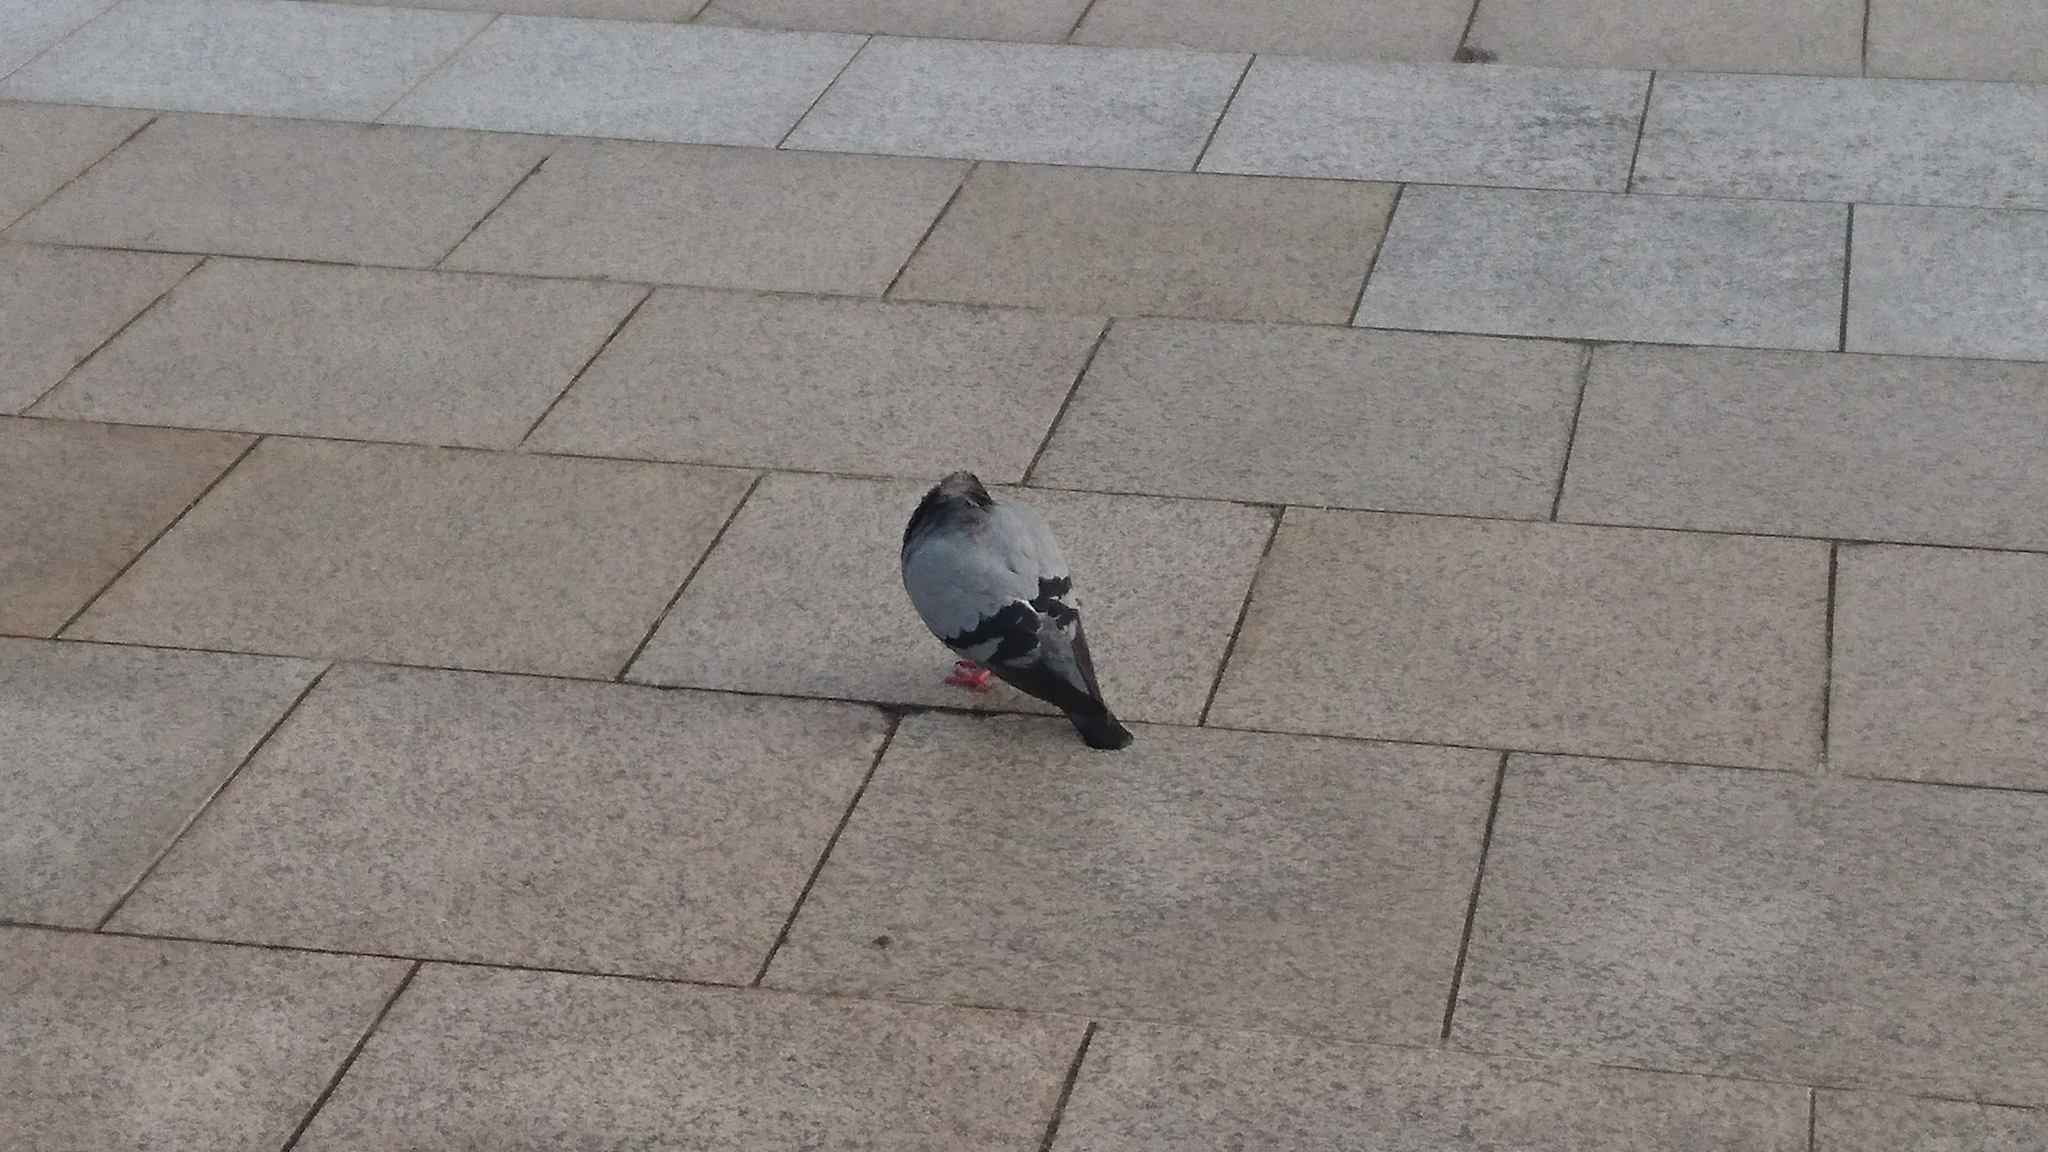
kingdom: Animalia
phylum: Chordata
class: Aves
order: Columbiformes
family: Columbidae
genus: Columba
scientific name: Columba livia
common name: Rock pigeon
